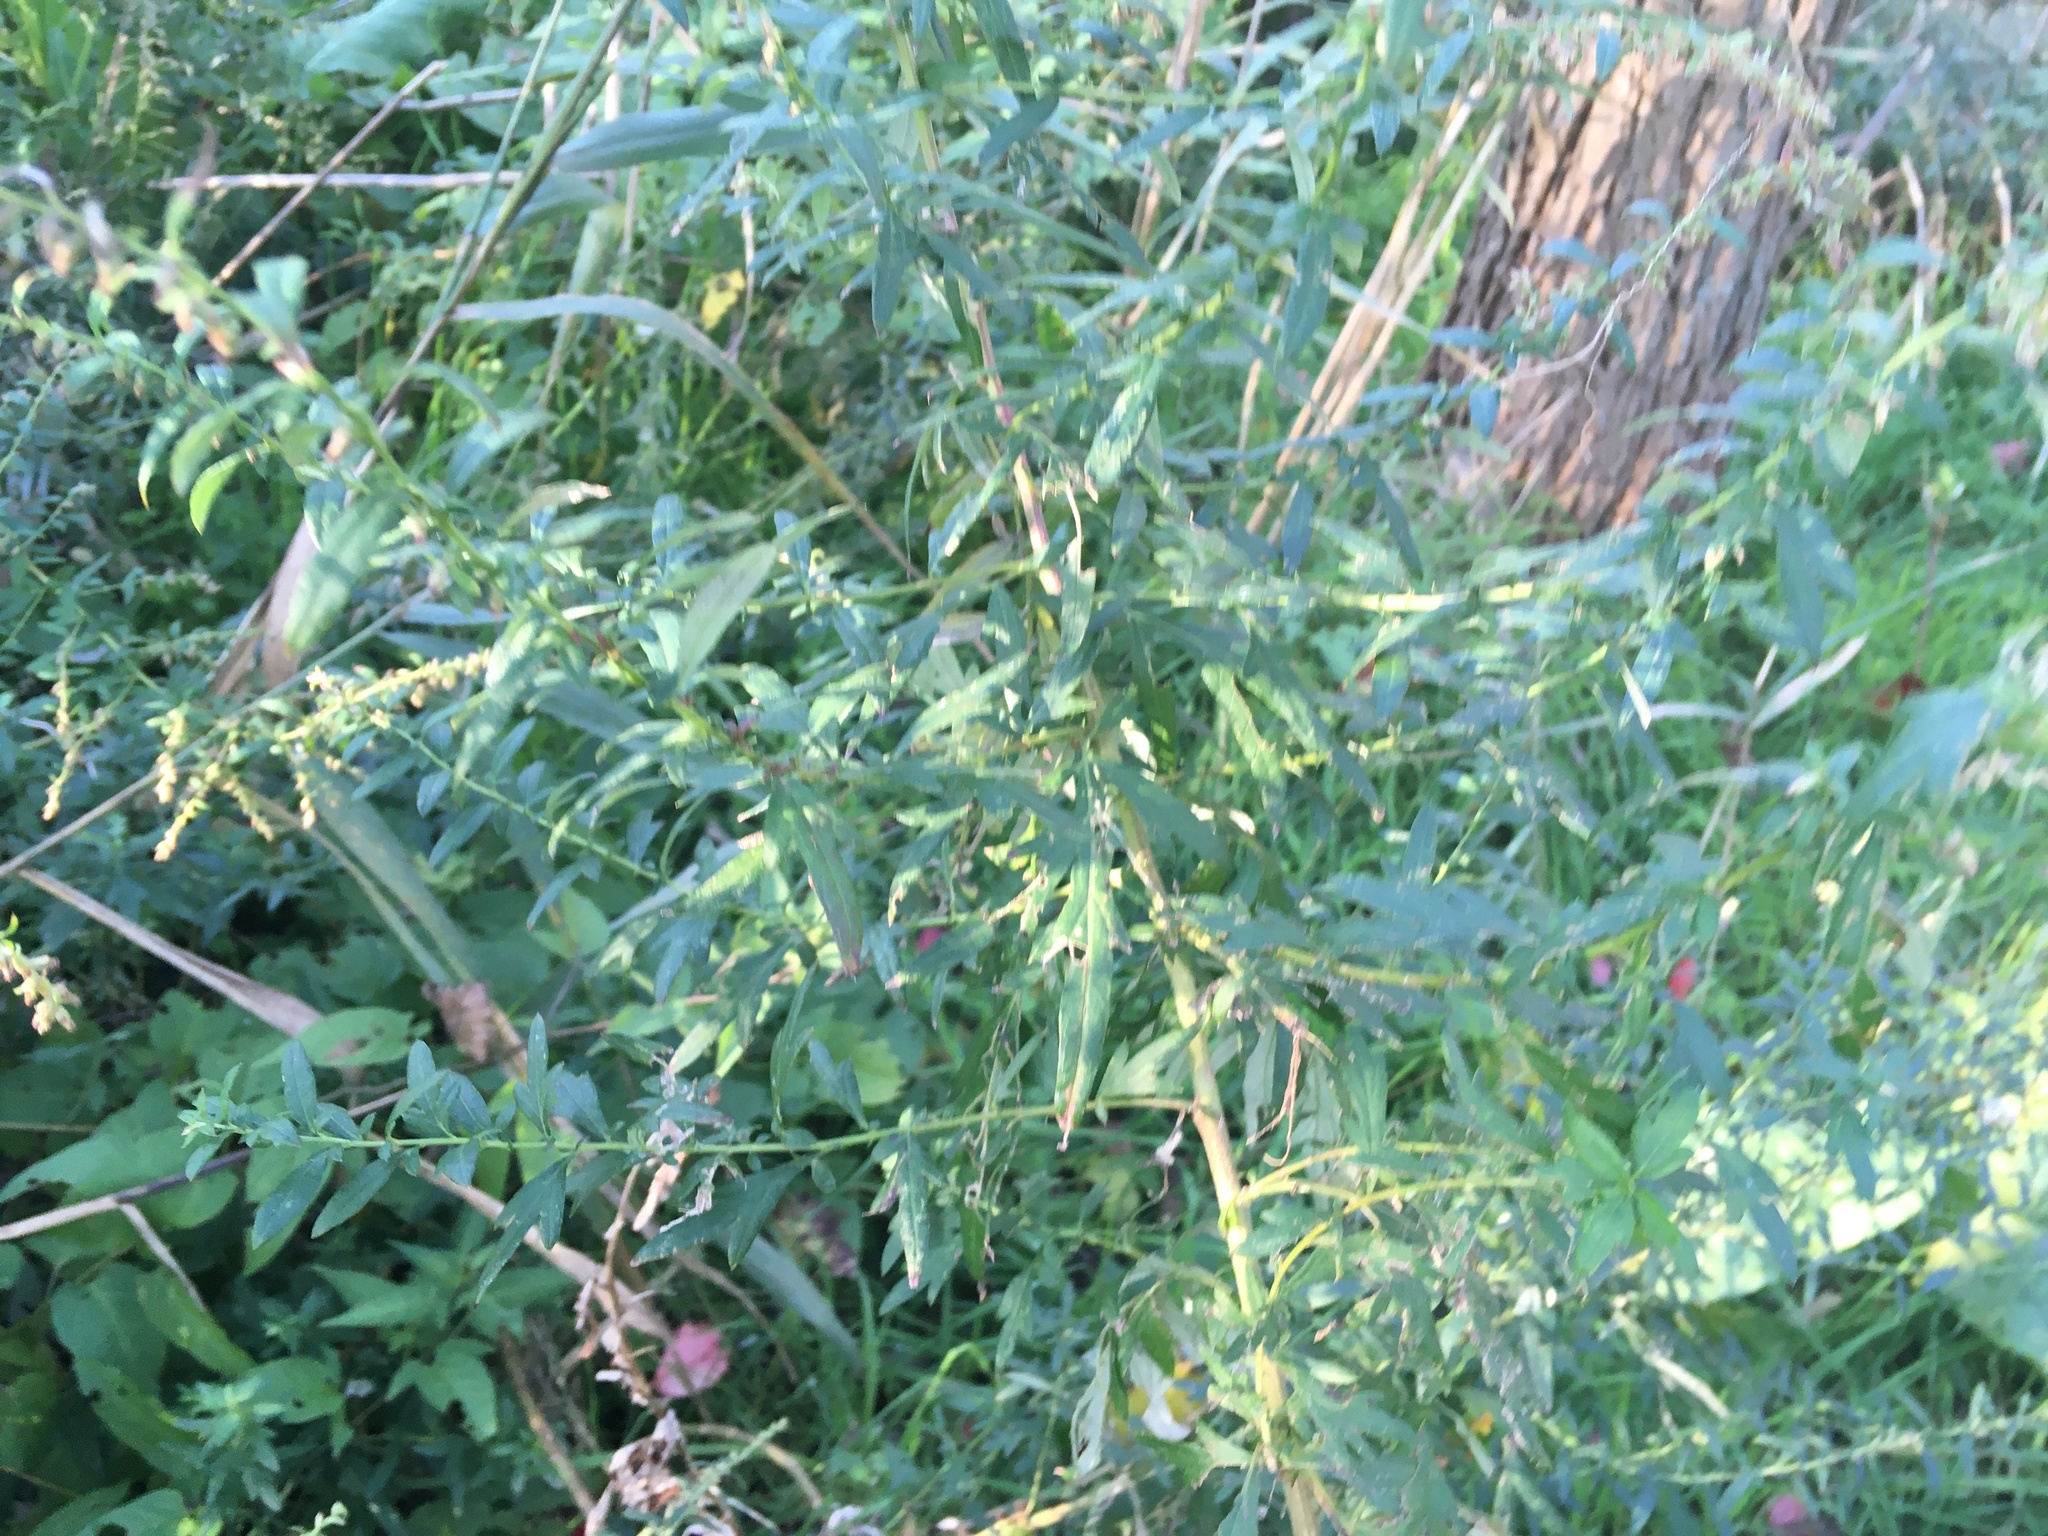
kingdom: Plantae
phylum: Tracheophyta
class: Magnoliopsida
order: Asterales
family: Asteraceae
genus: Artemisia
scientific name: Artemisia vulgaris
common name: Mugwort
